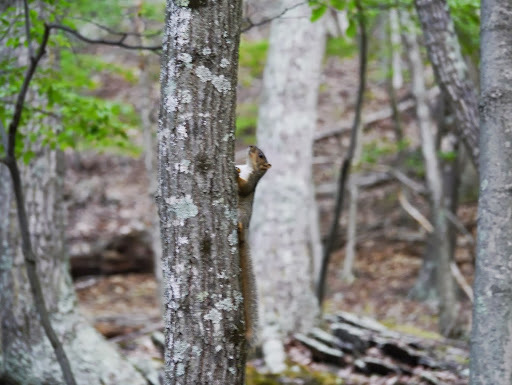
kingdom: Animalia
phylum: Chordata
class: Mammalia
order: Rodentia
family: Sciuridae
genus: Sciurus
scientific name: Sciurus carolinensis
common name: Eastern gray squirrel
